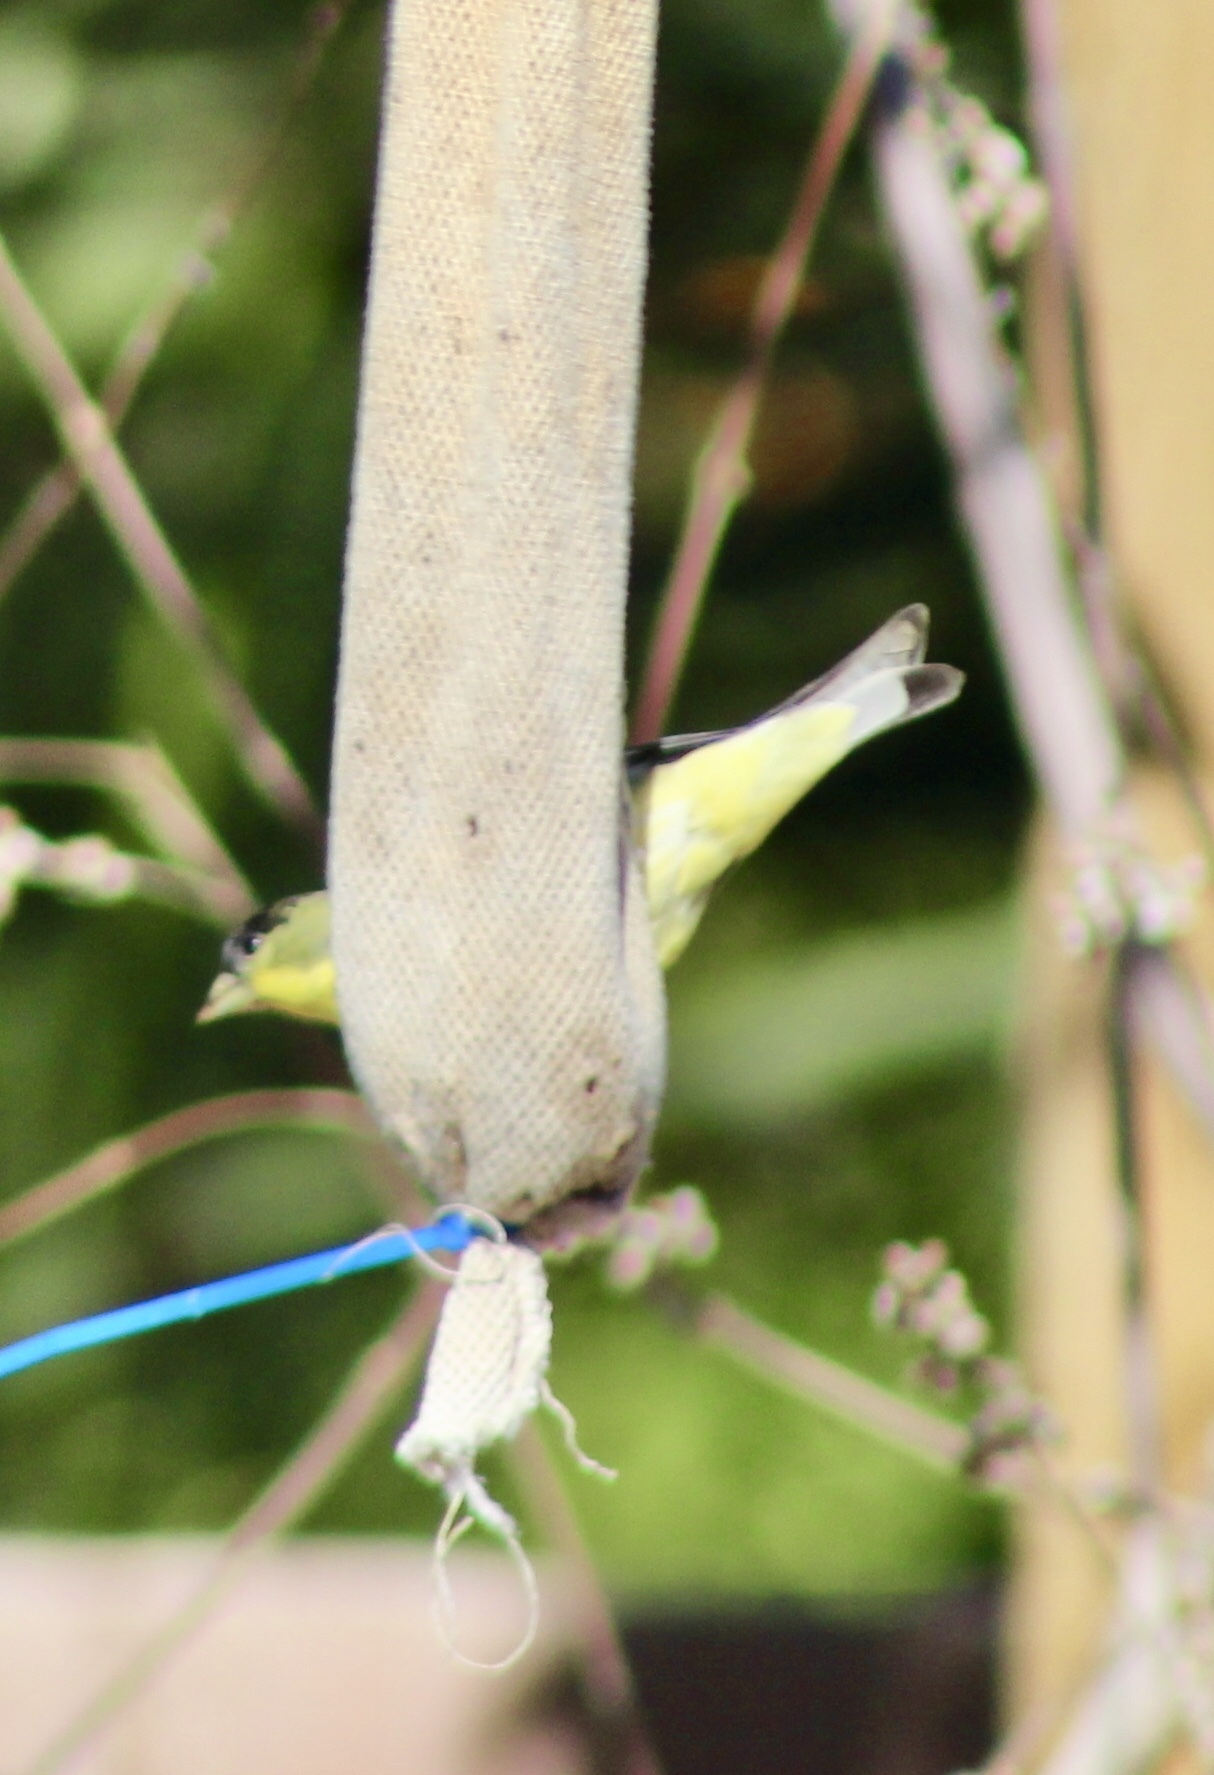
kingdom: Animalia
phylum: Chordata
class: Aves
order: Passeriformes
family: Fringillidae
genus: Spinus
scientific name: Spinus psaltria
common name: Lesser goldfinch
